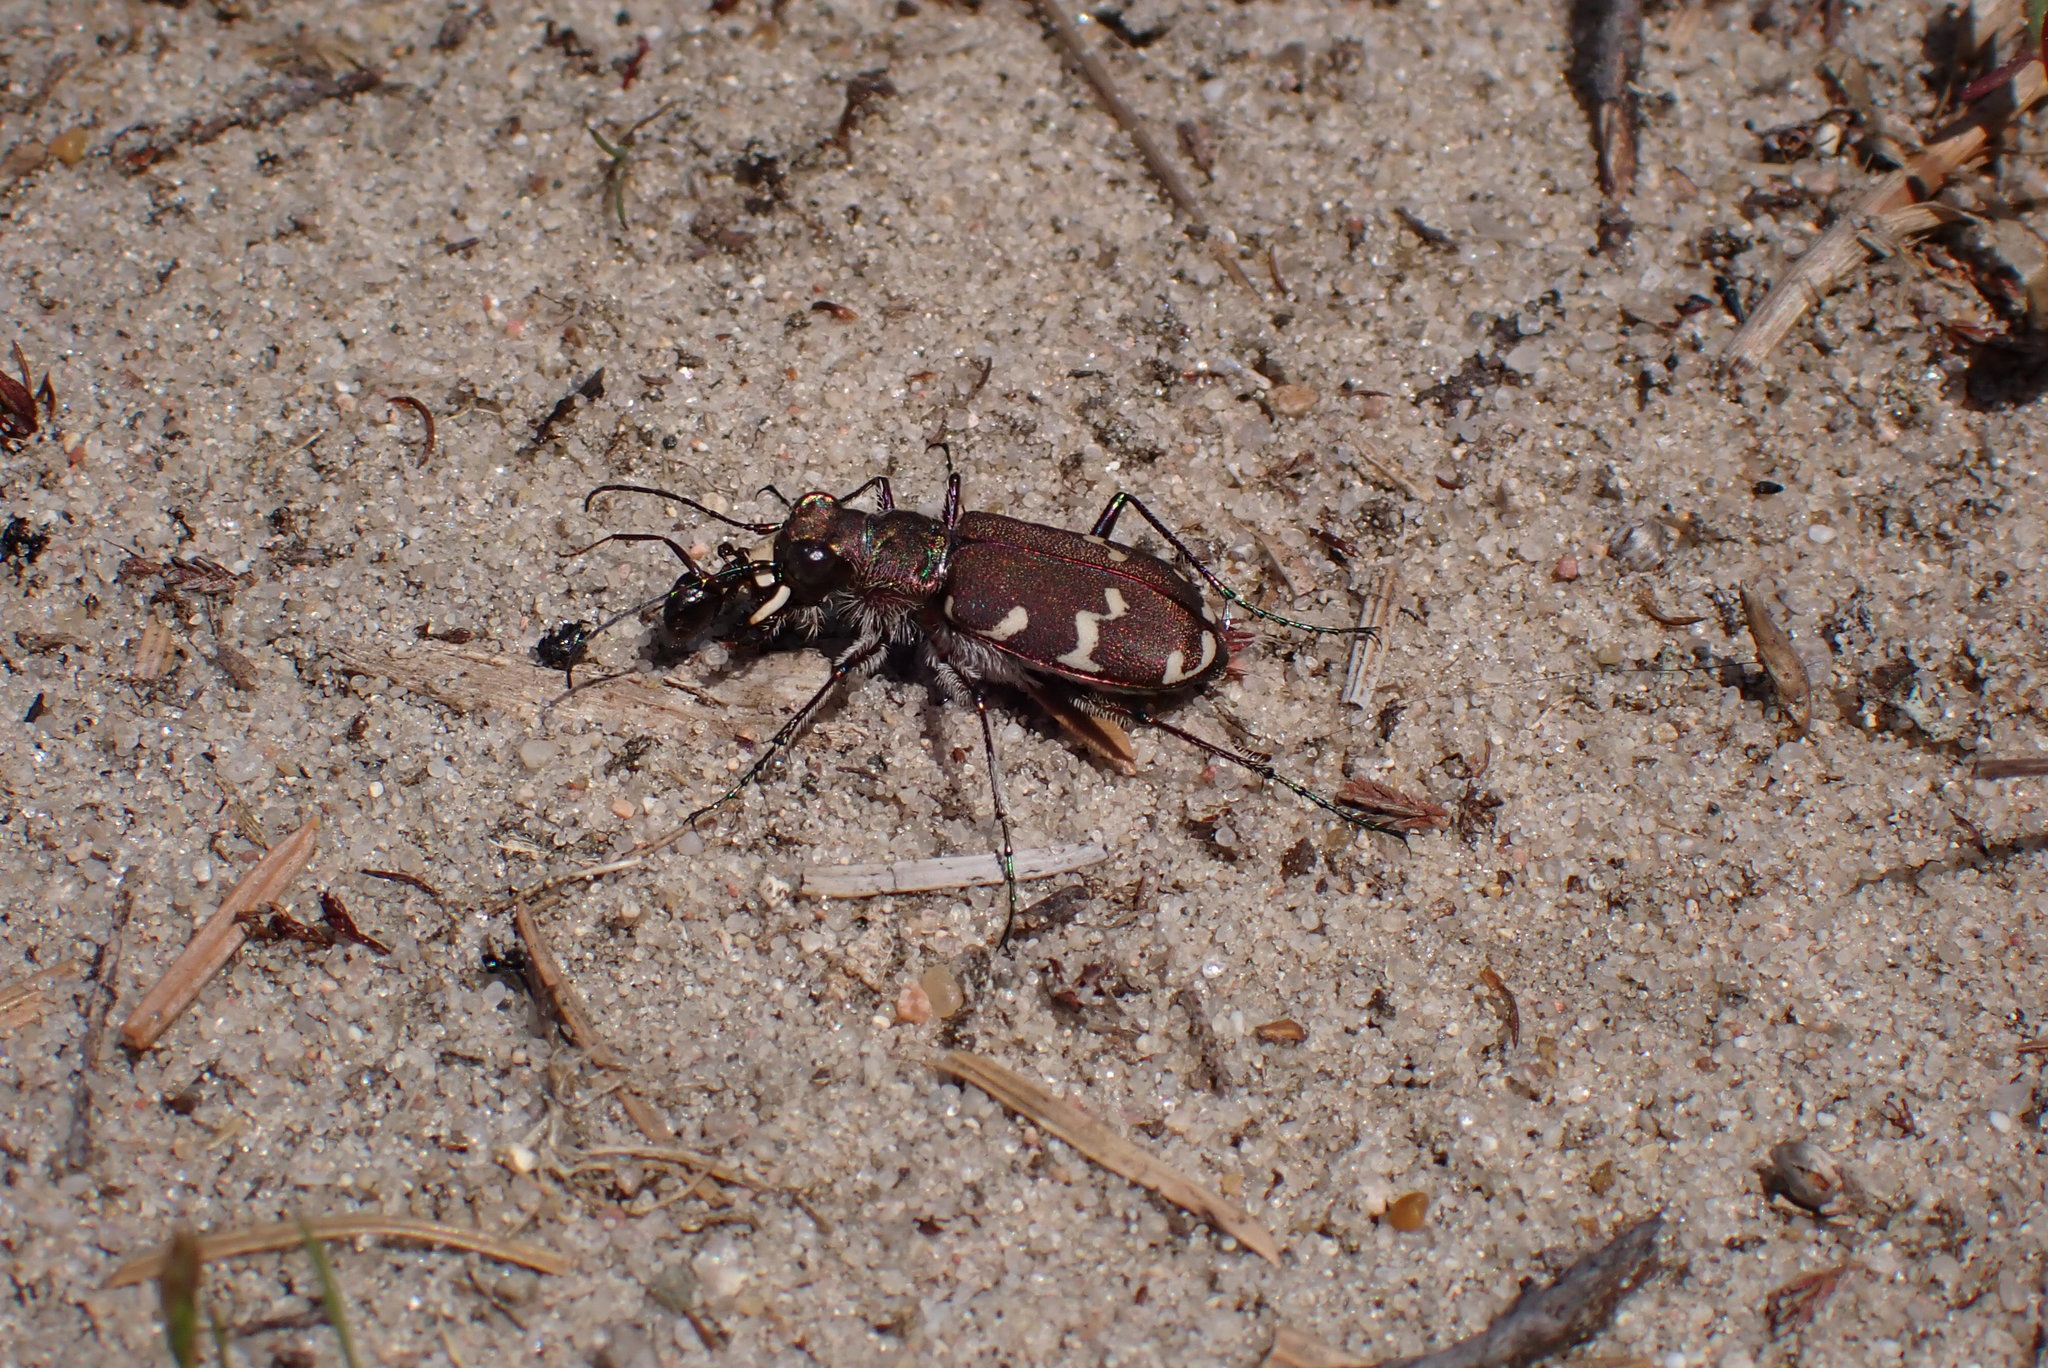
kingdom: Animalia
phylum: Arthropoda
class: Insecta
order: Coleoptera
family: Carabidae
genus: Cicindela
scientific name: Cicindela hybrida
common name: Northern dune tiger beetle
